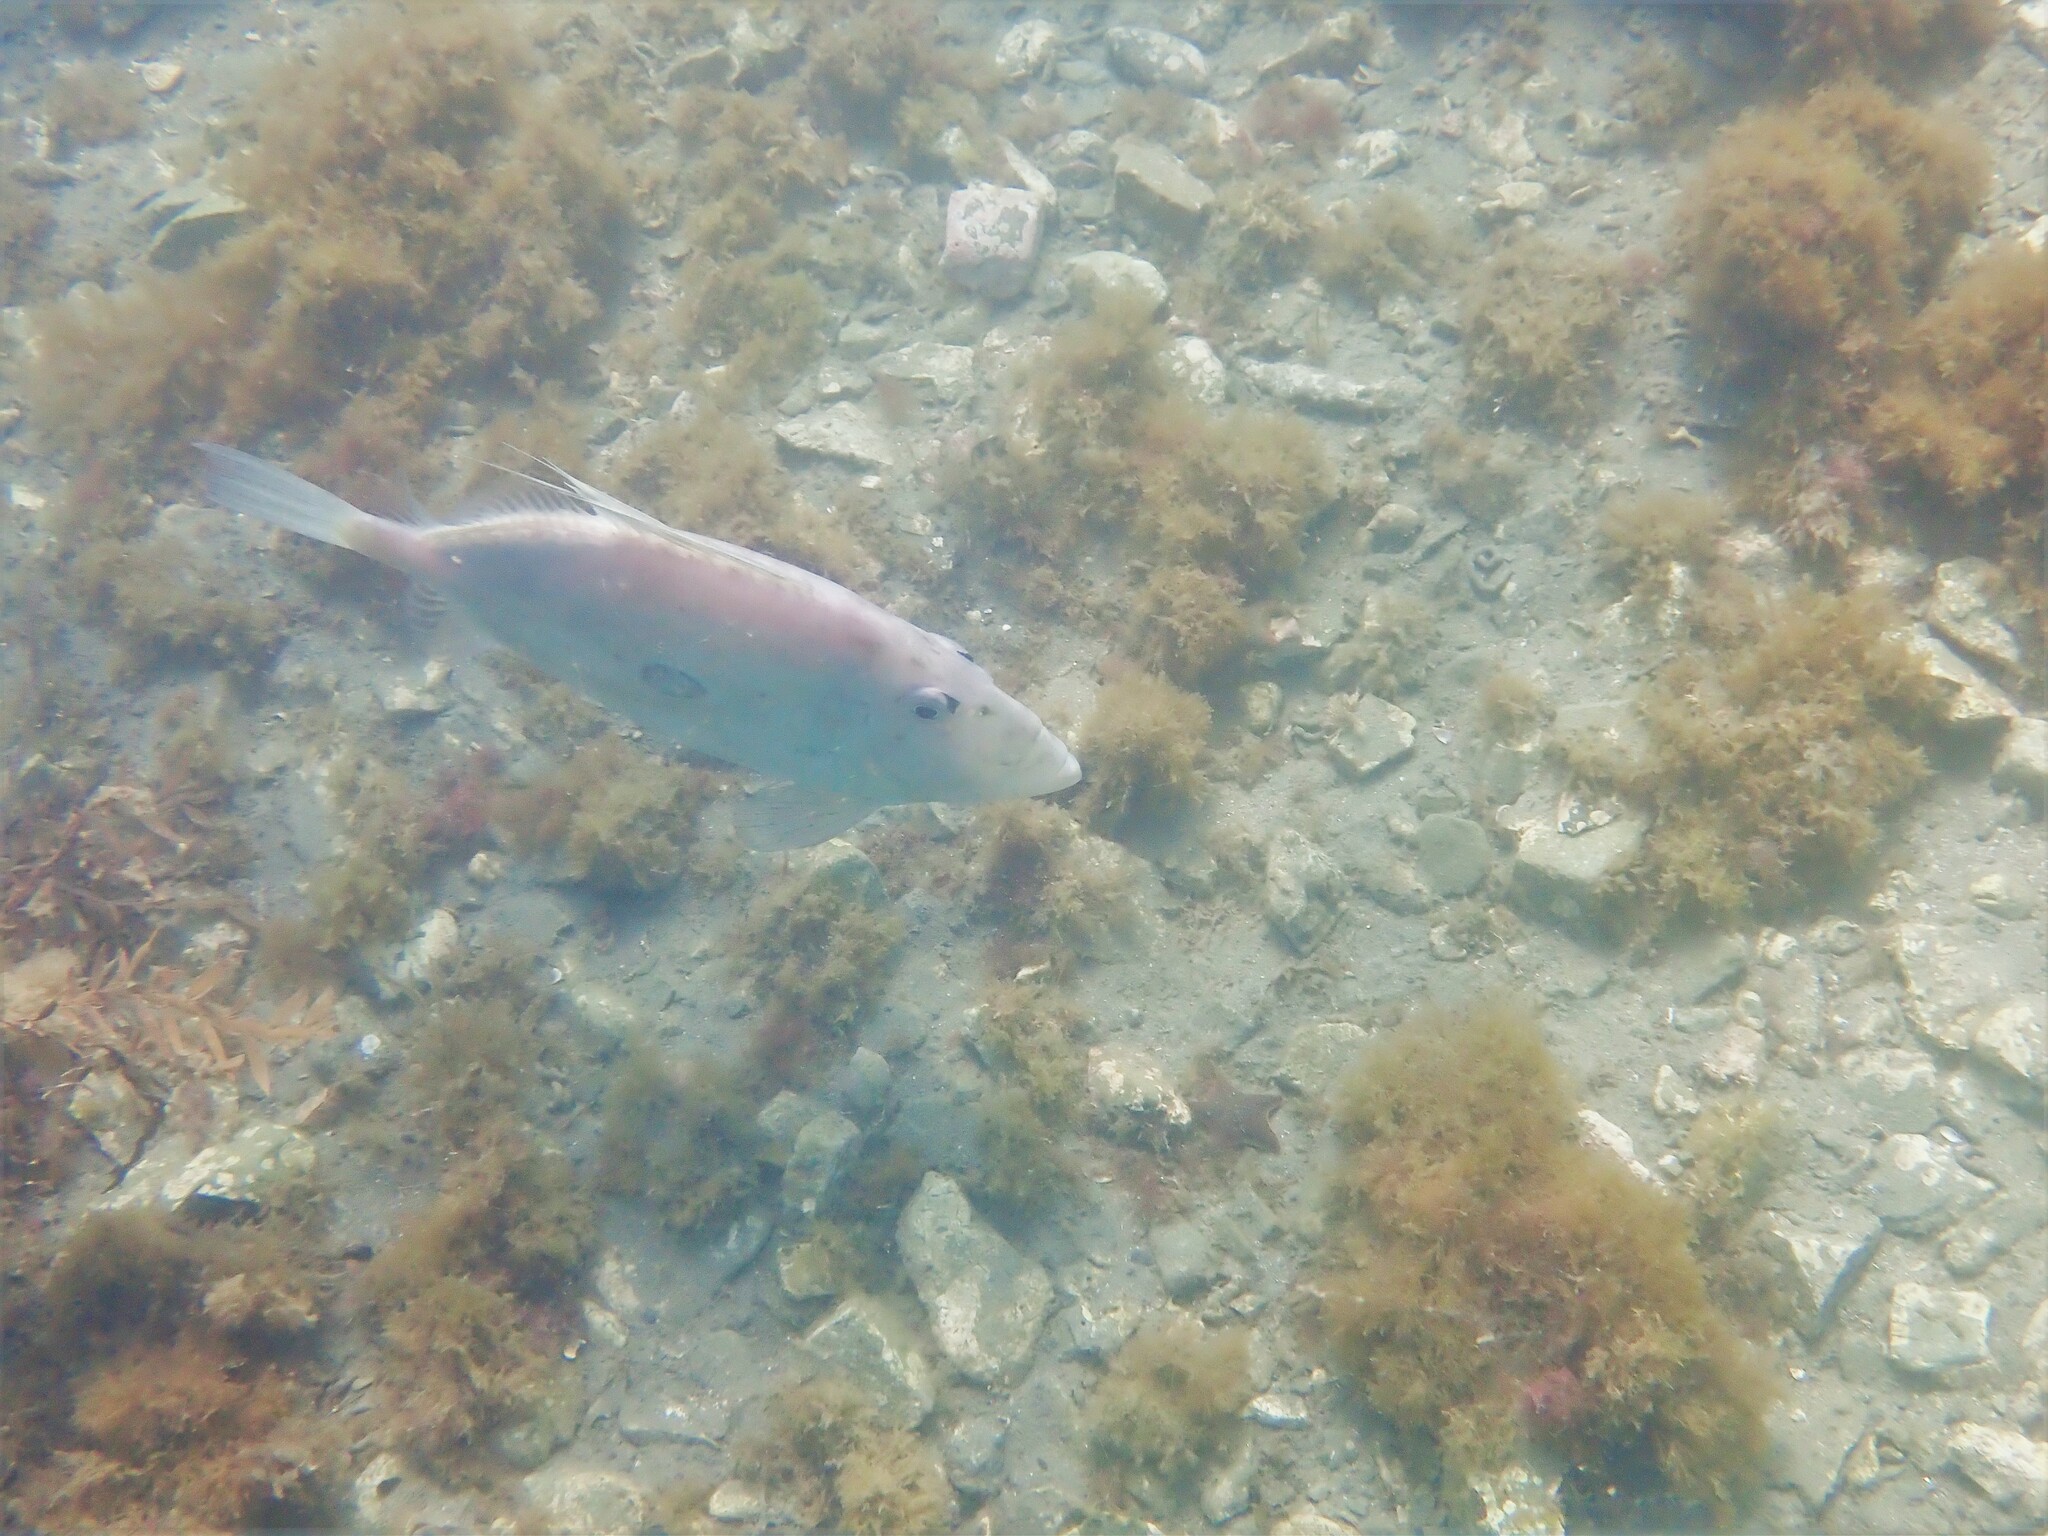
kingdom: Animalia
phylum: Chordata
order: Zeiformes
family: Zeidae
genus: Zeus
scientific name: Zeus faber
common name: John dory
